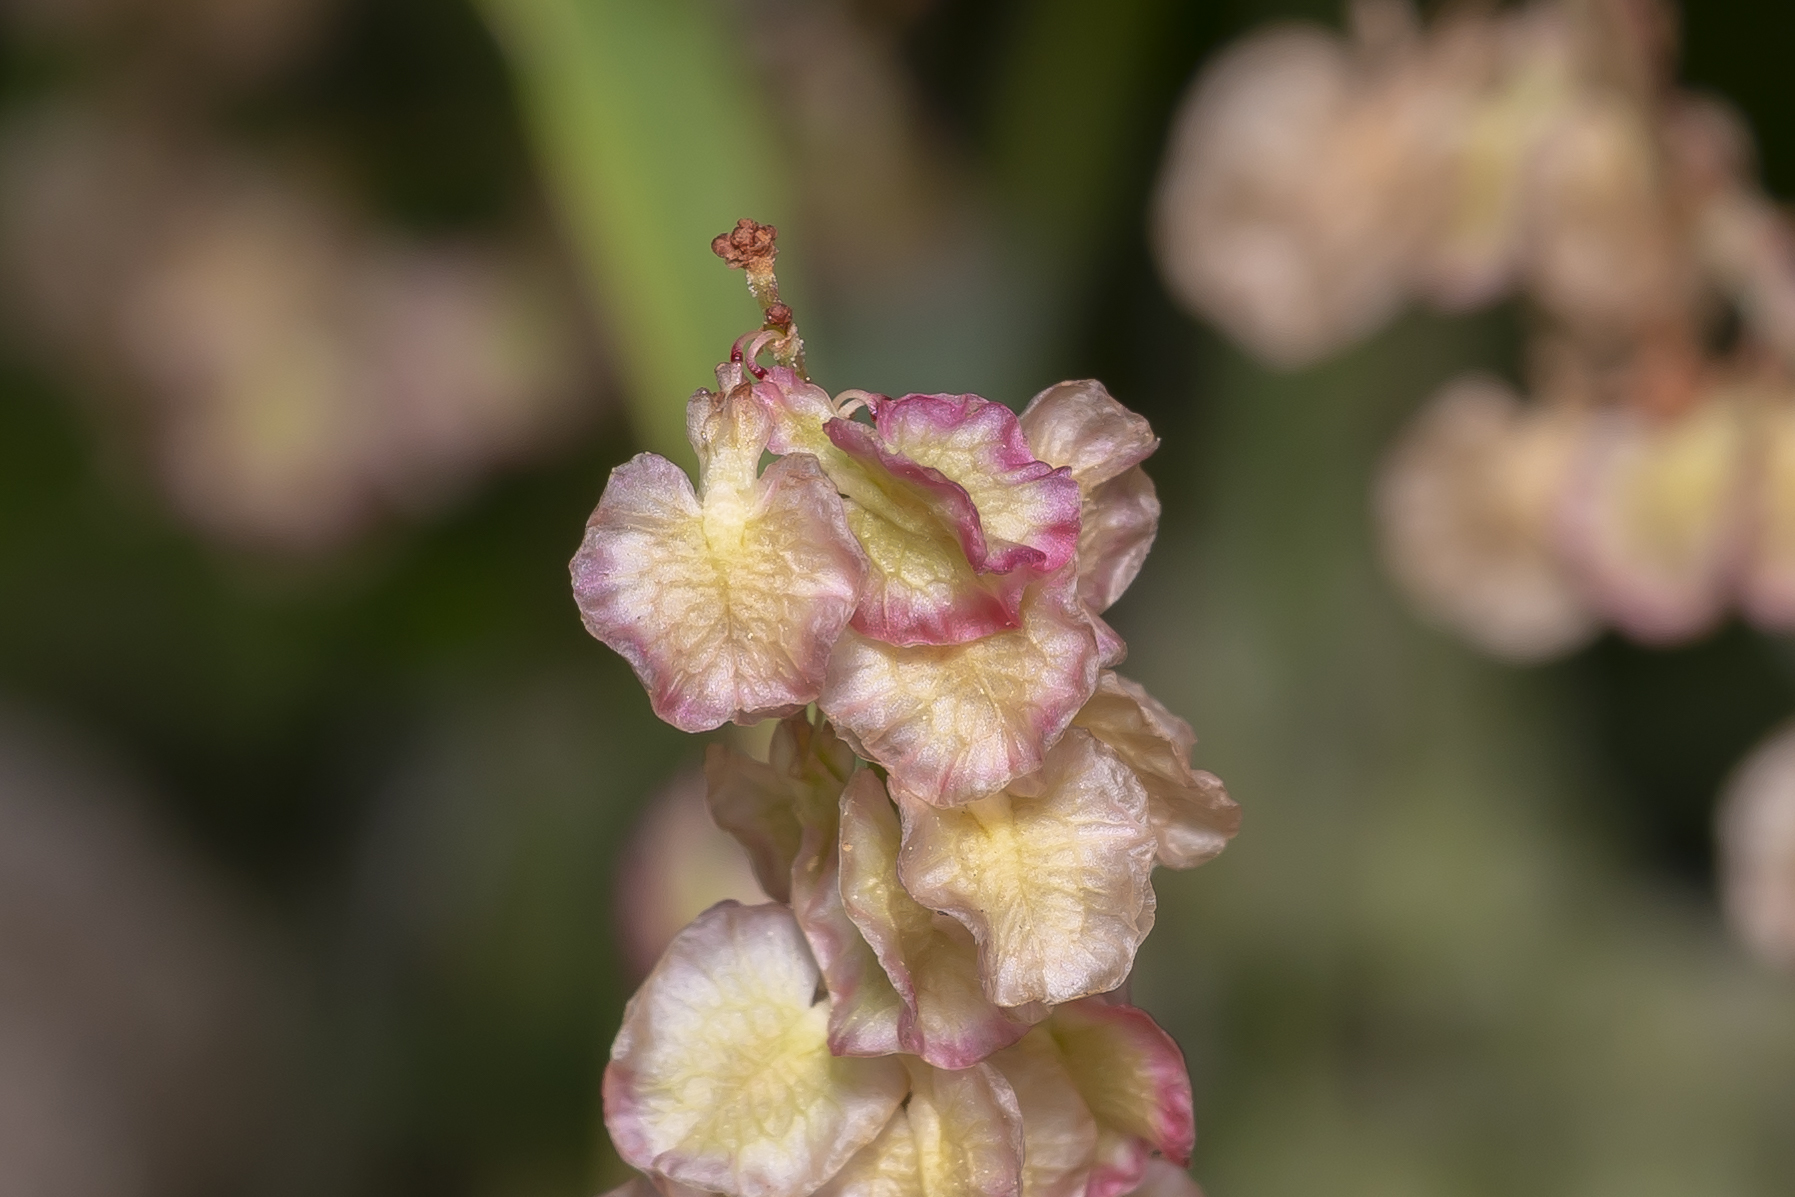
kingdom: Plantae
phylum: Tracheophyta
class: Magnoliopsida
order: Caryophyllales
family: Polygonaceae
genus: Rumex
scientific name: Rumex tuberosus
